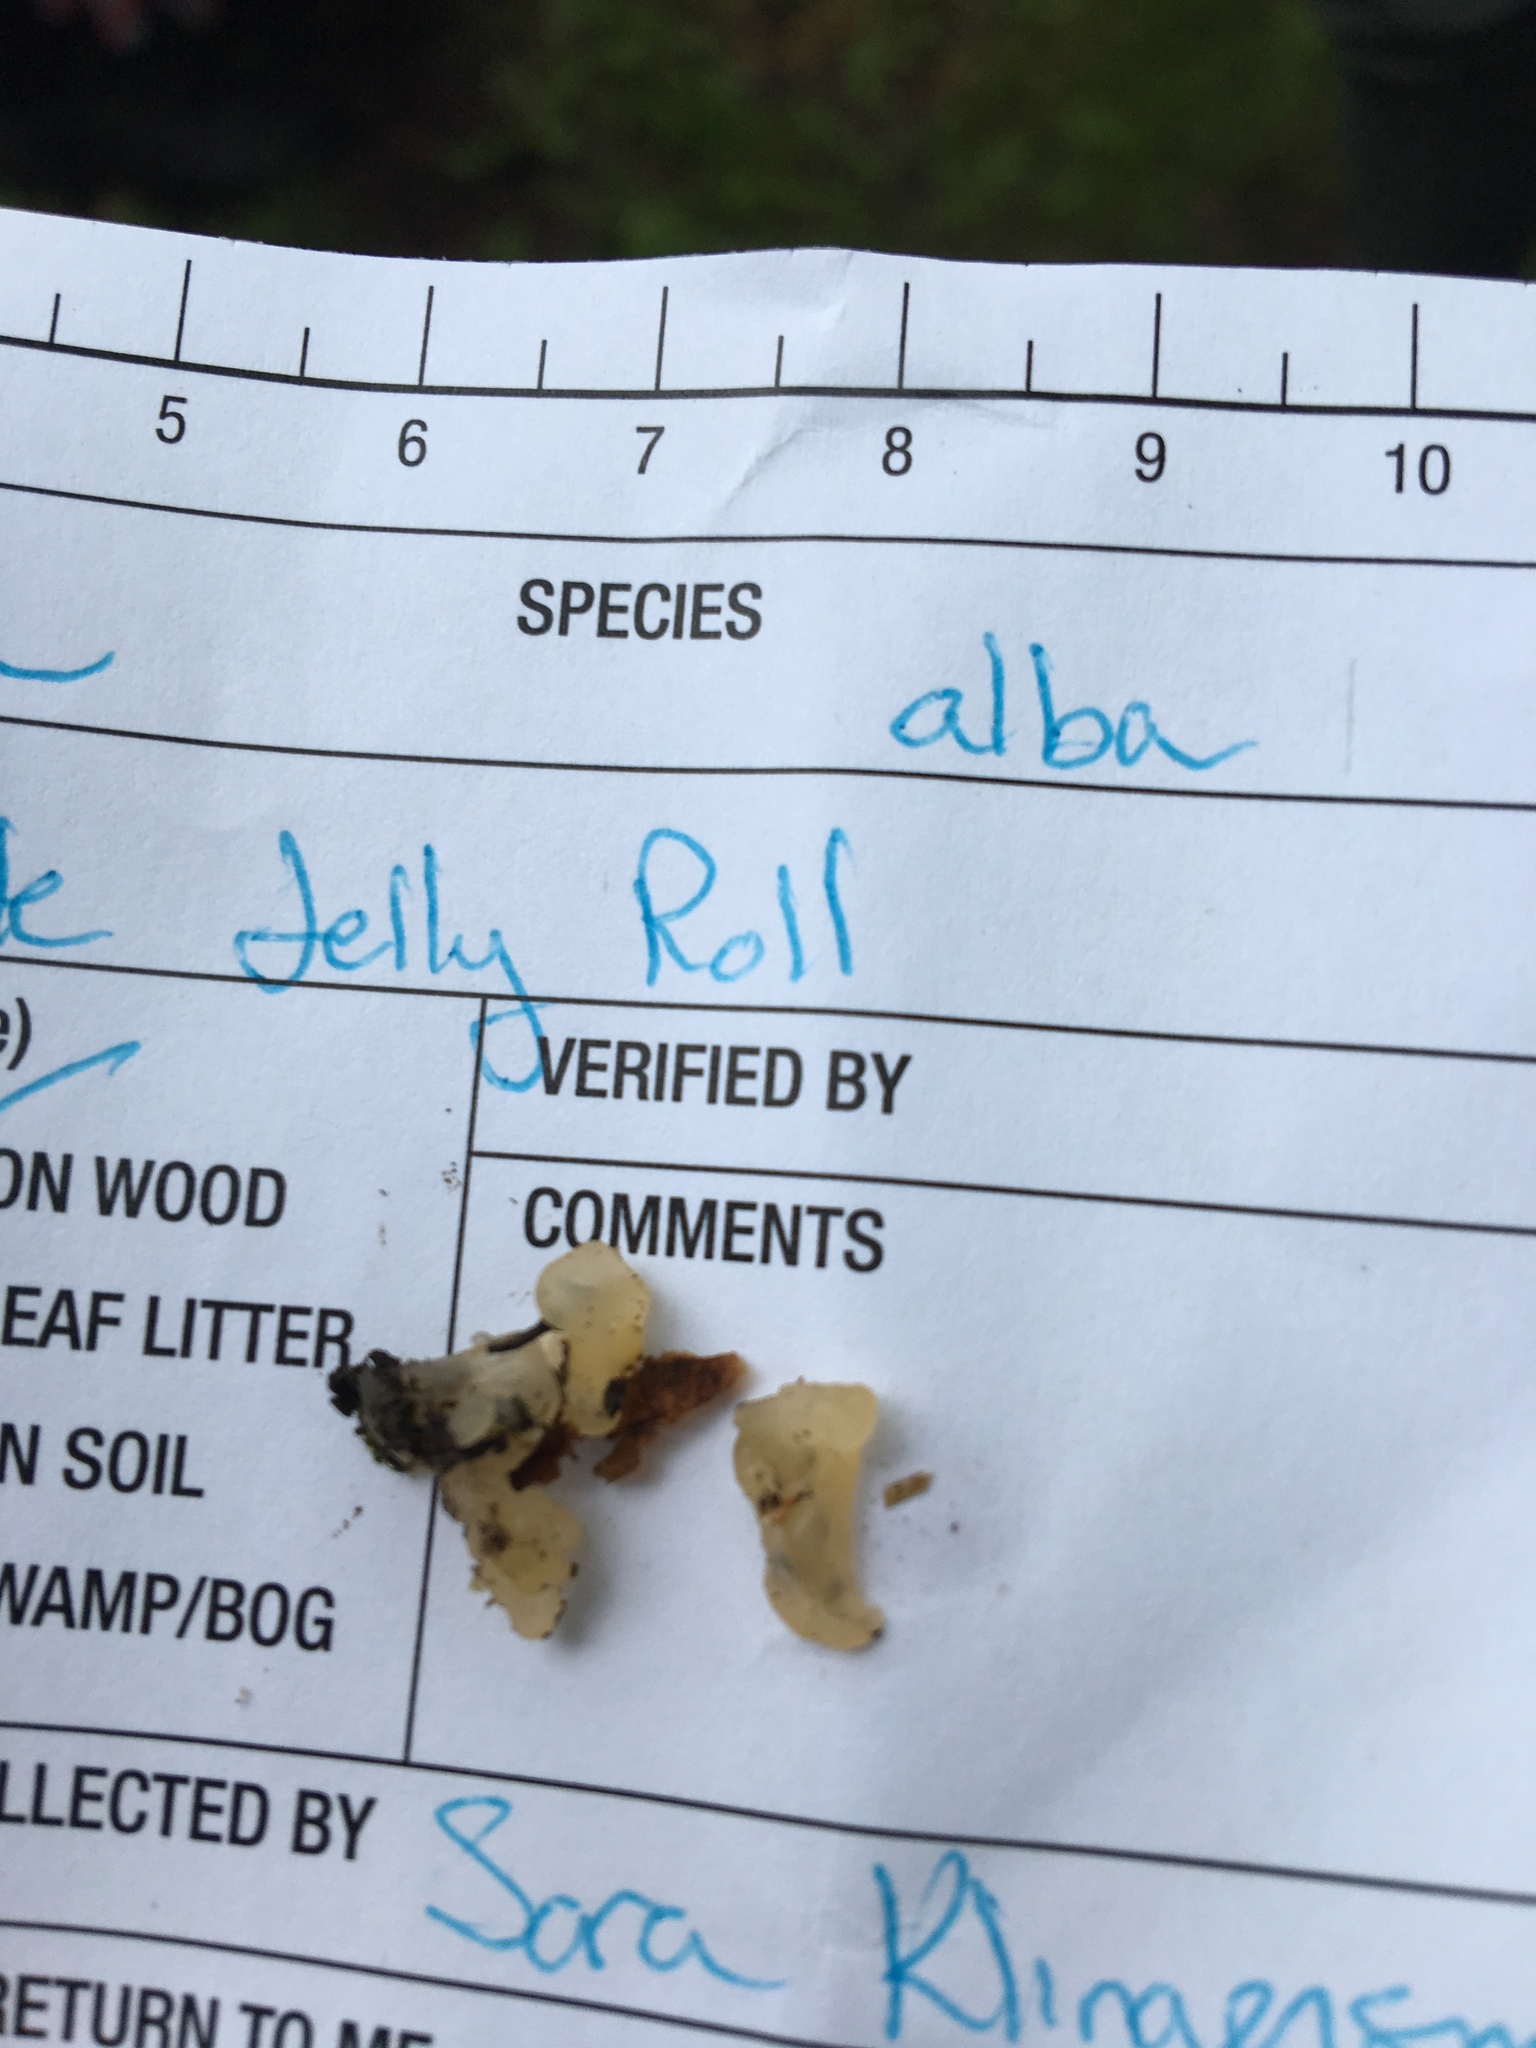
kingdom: Fungi
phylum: Basidiomycota
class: Agaricomycetes
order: Auriculariales
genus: Ductifera
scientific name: Ductifera pululahuana
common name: White jelly fungus
